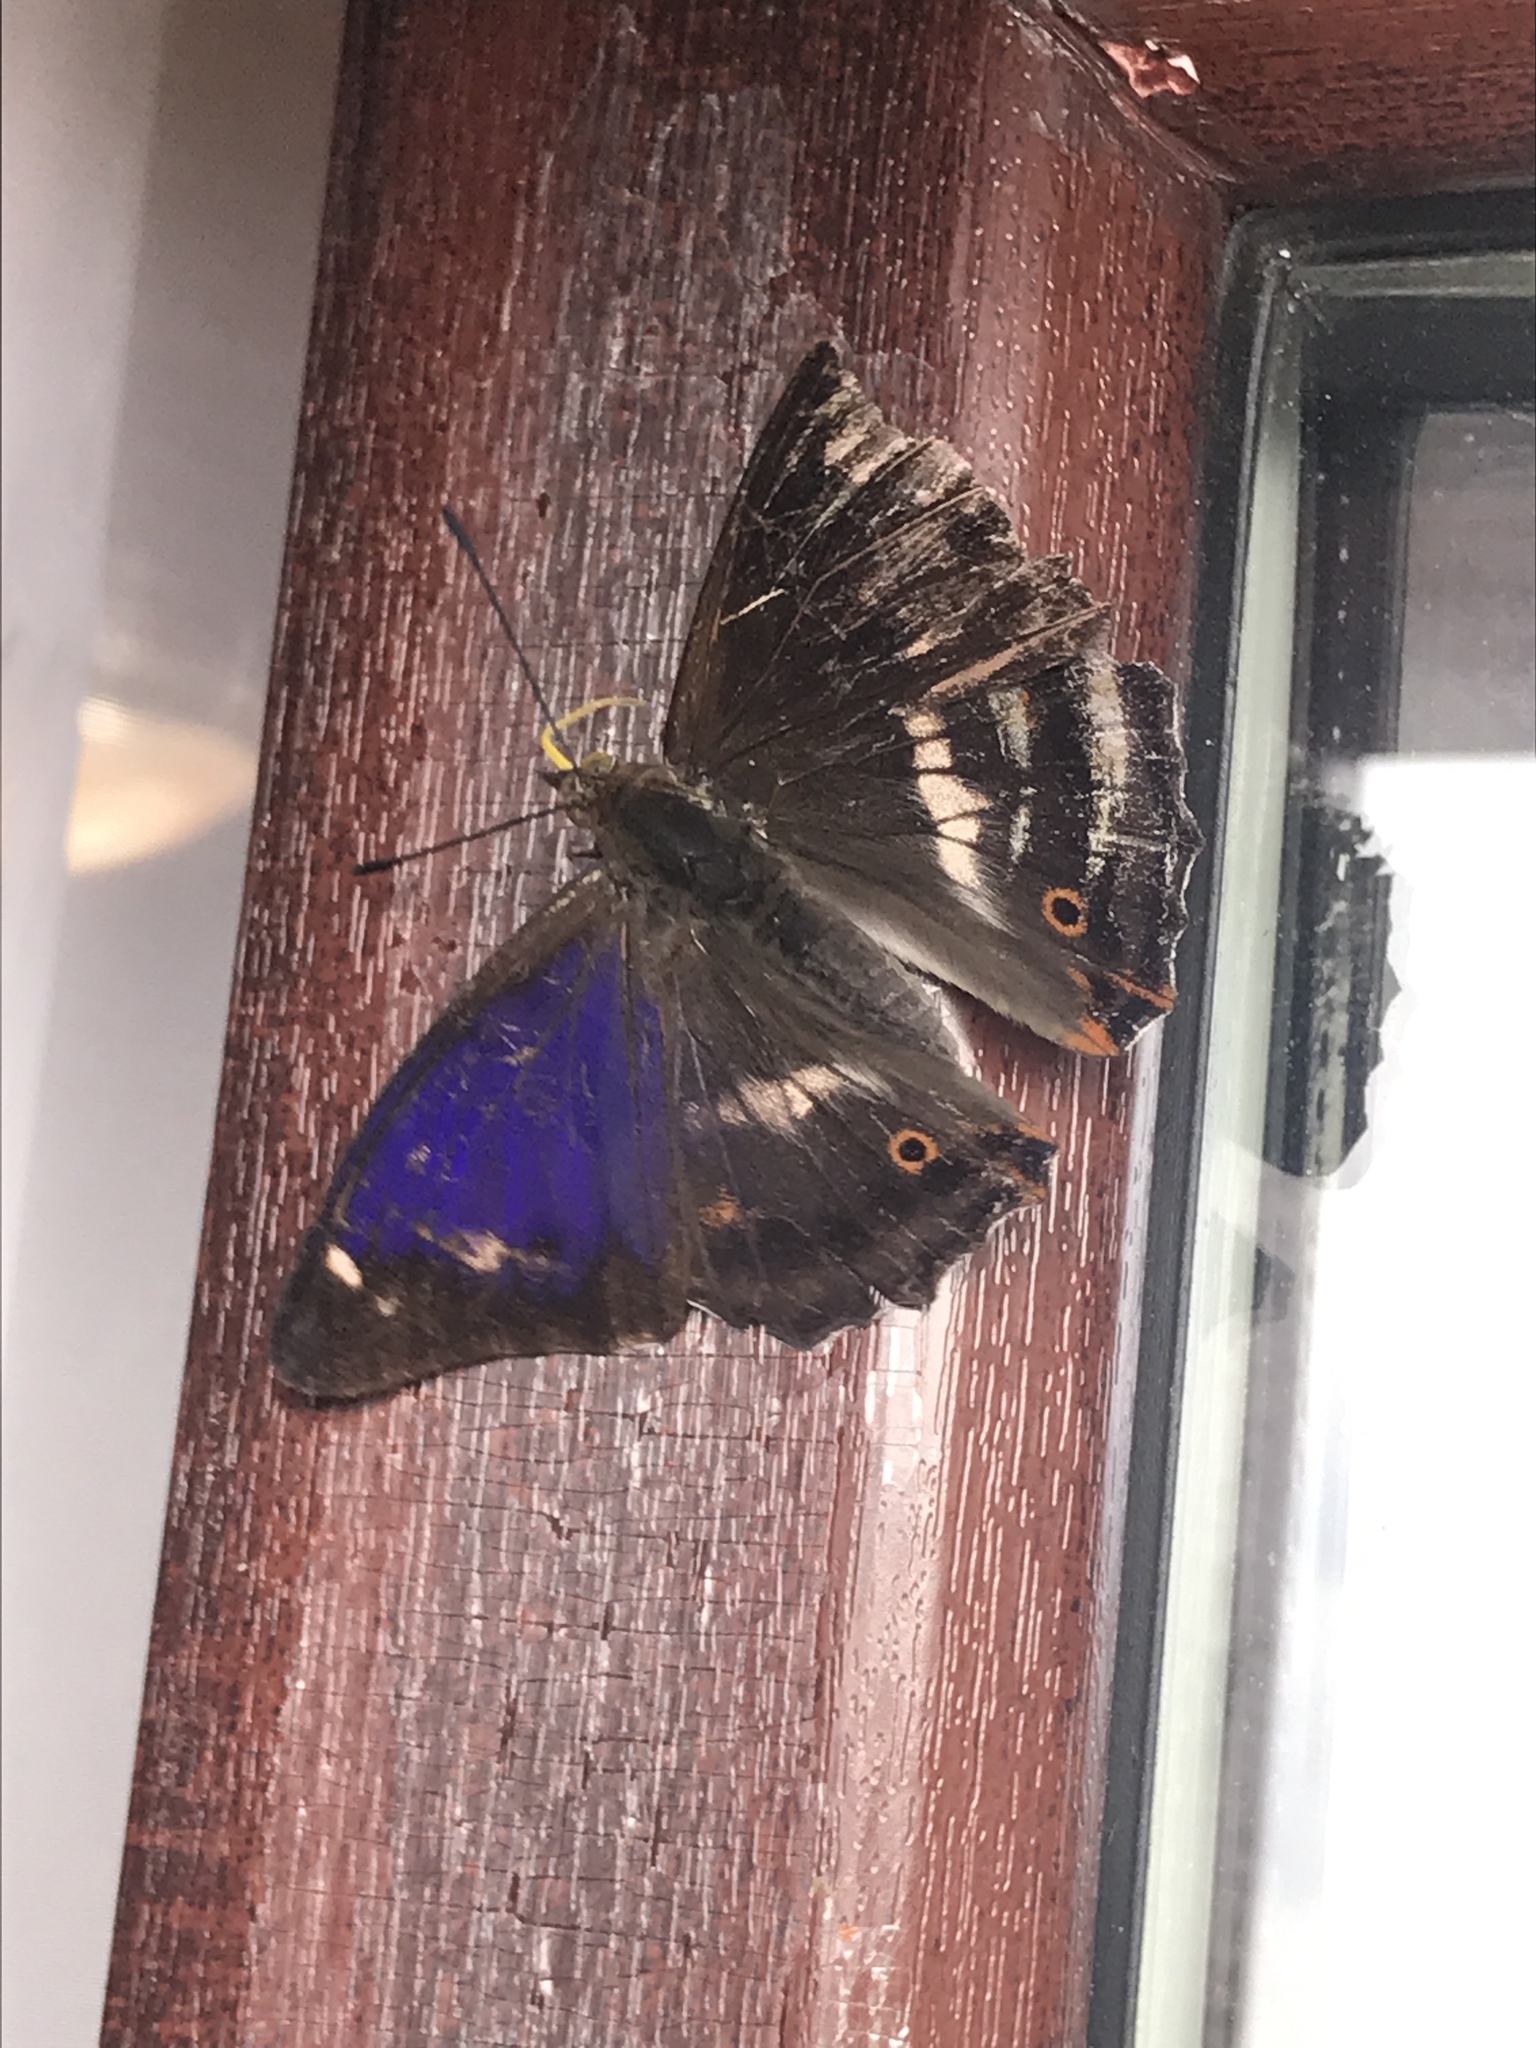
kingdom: Animalia
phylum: Arthropoda
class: Insecta
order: Lepidoptera
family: Nymphalidae
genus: Apatura
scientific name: Apatura iris
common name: Purple emperor
